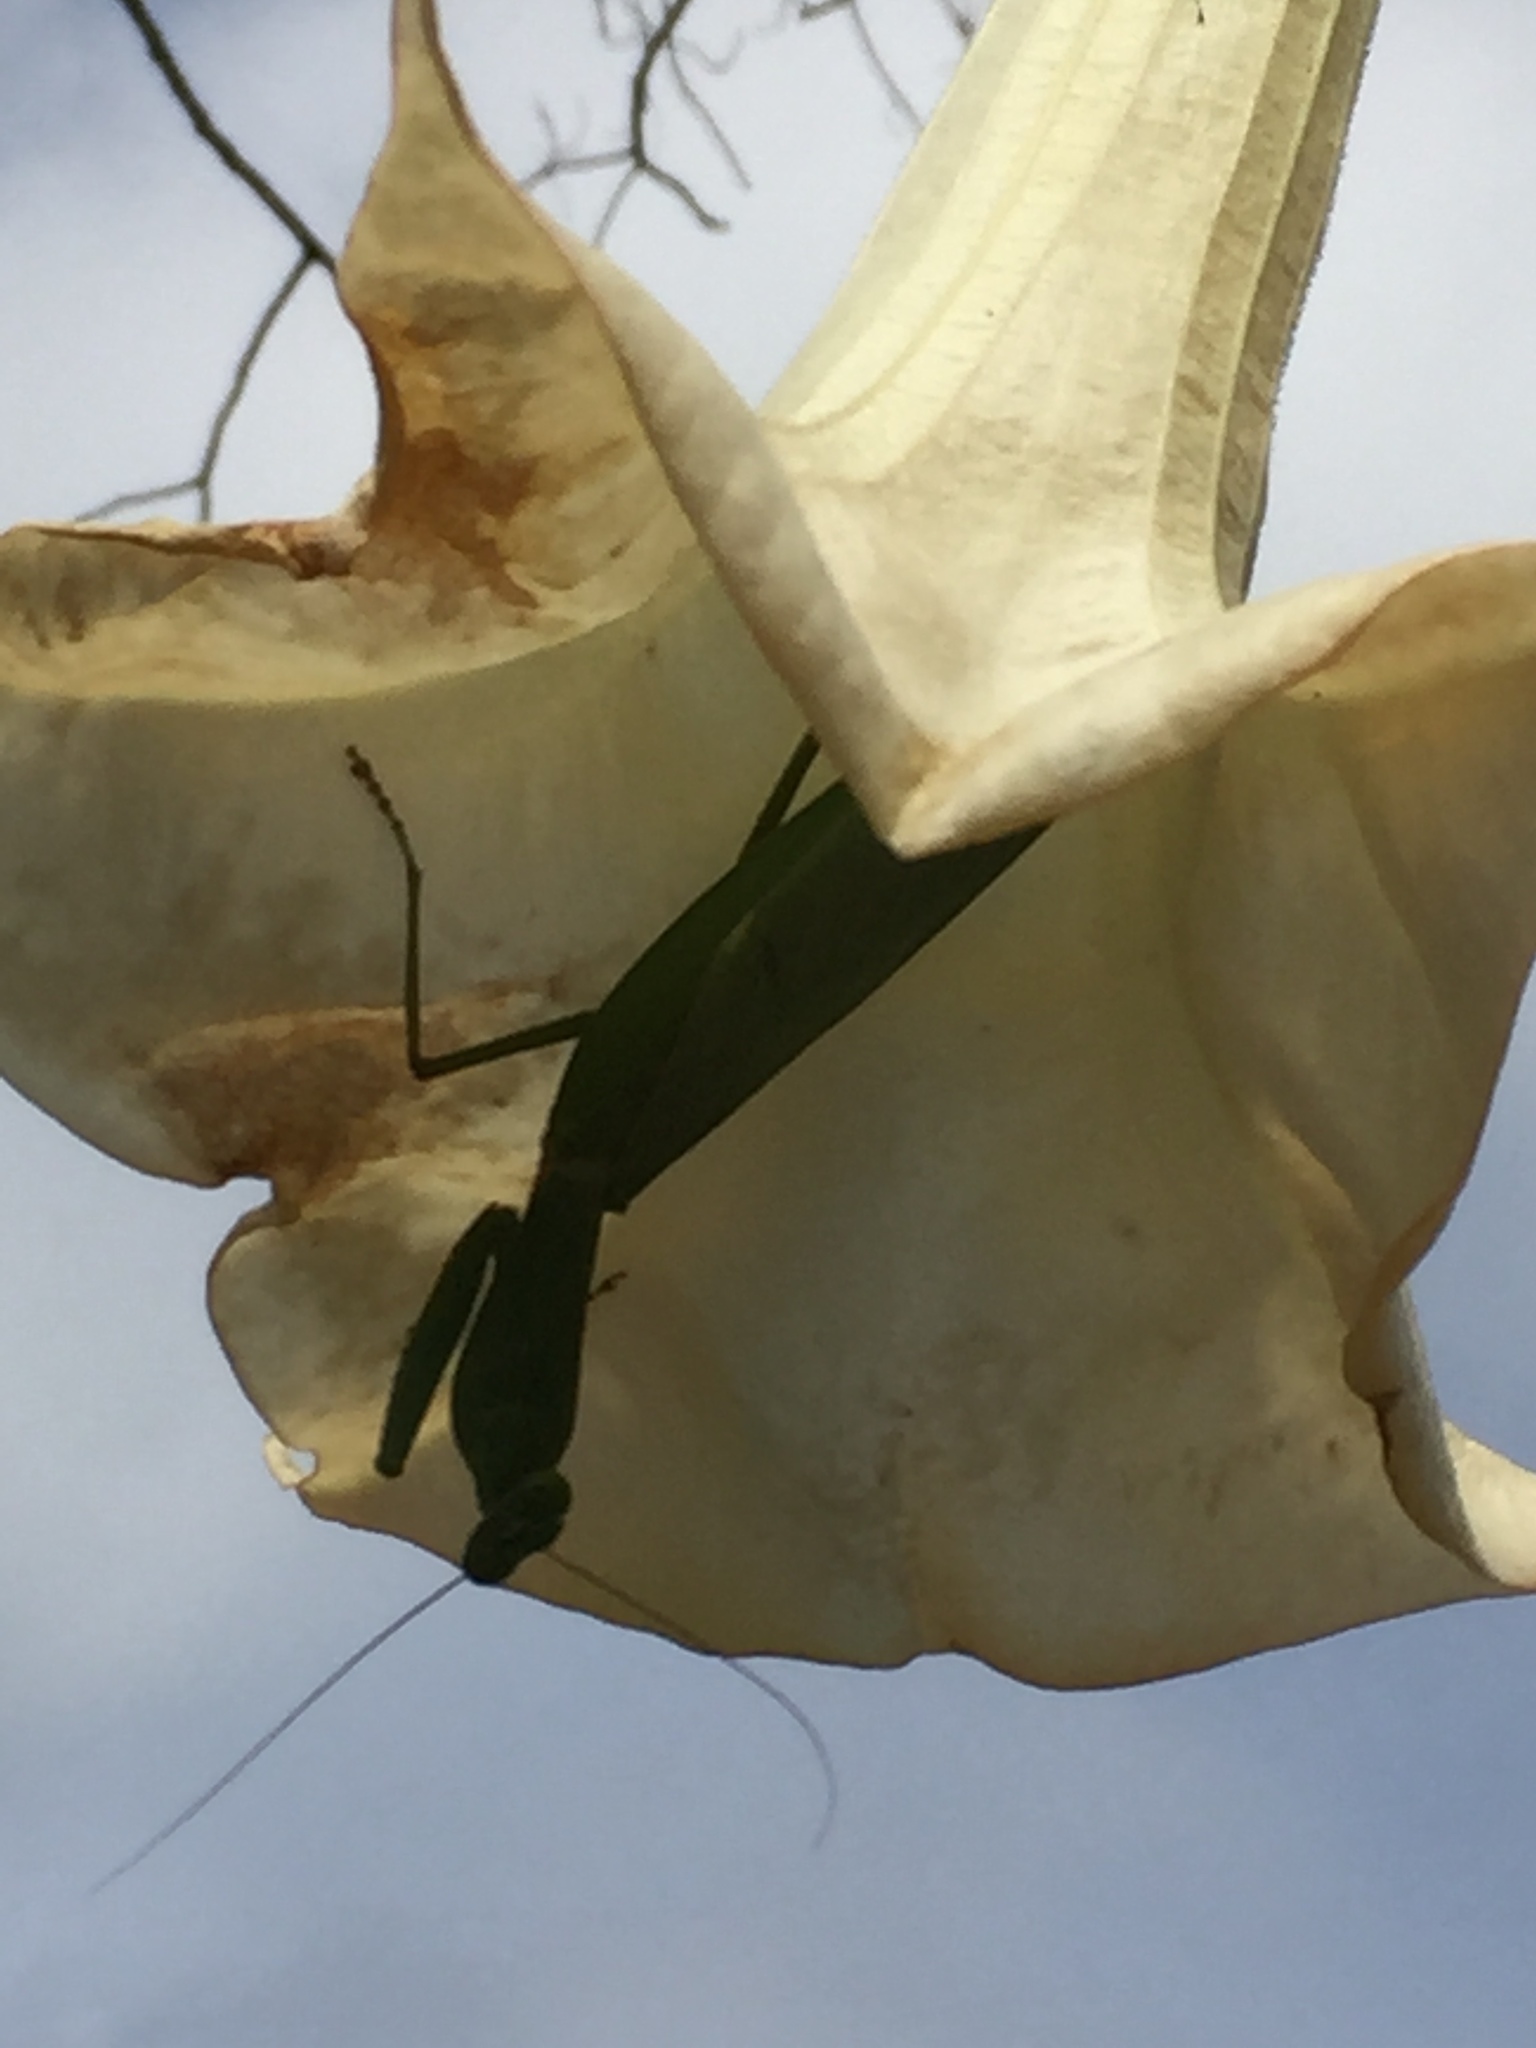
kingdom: Animalia
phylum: Arthropoda
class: Insecta
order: Mantodea
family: Mantidae
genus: Rhombodera
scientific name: Rhombodera lingulata
